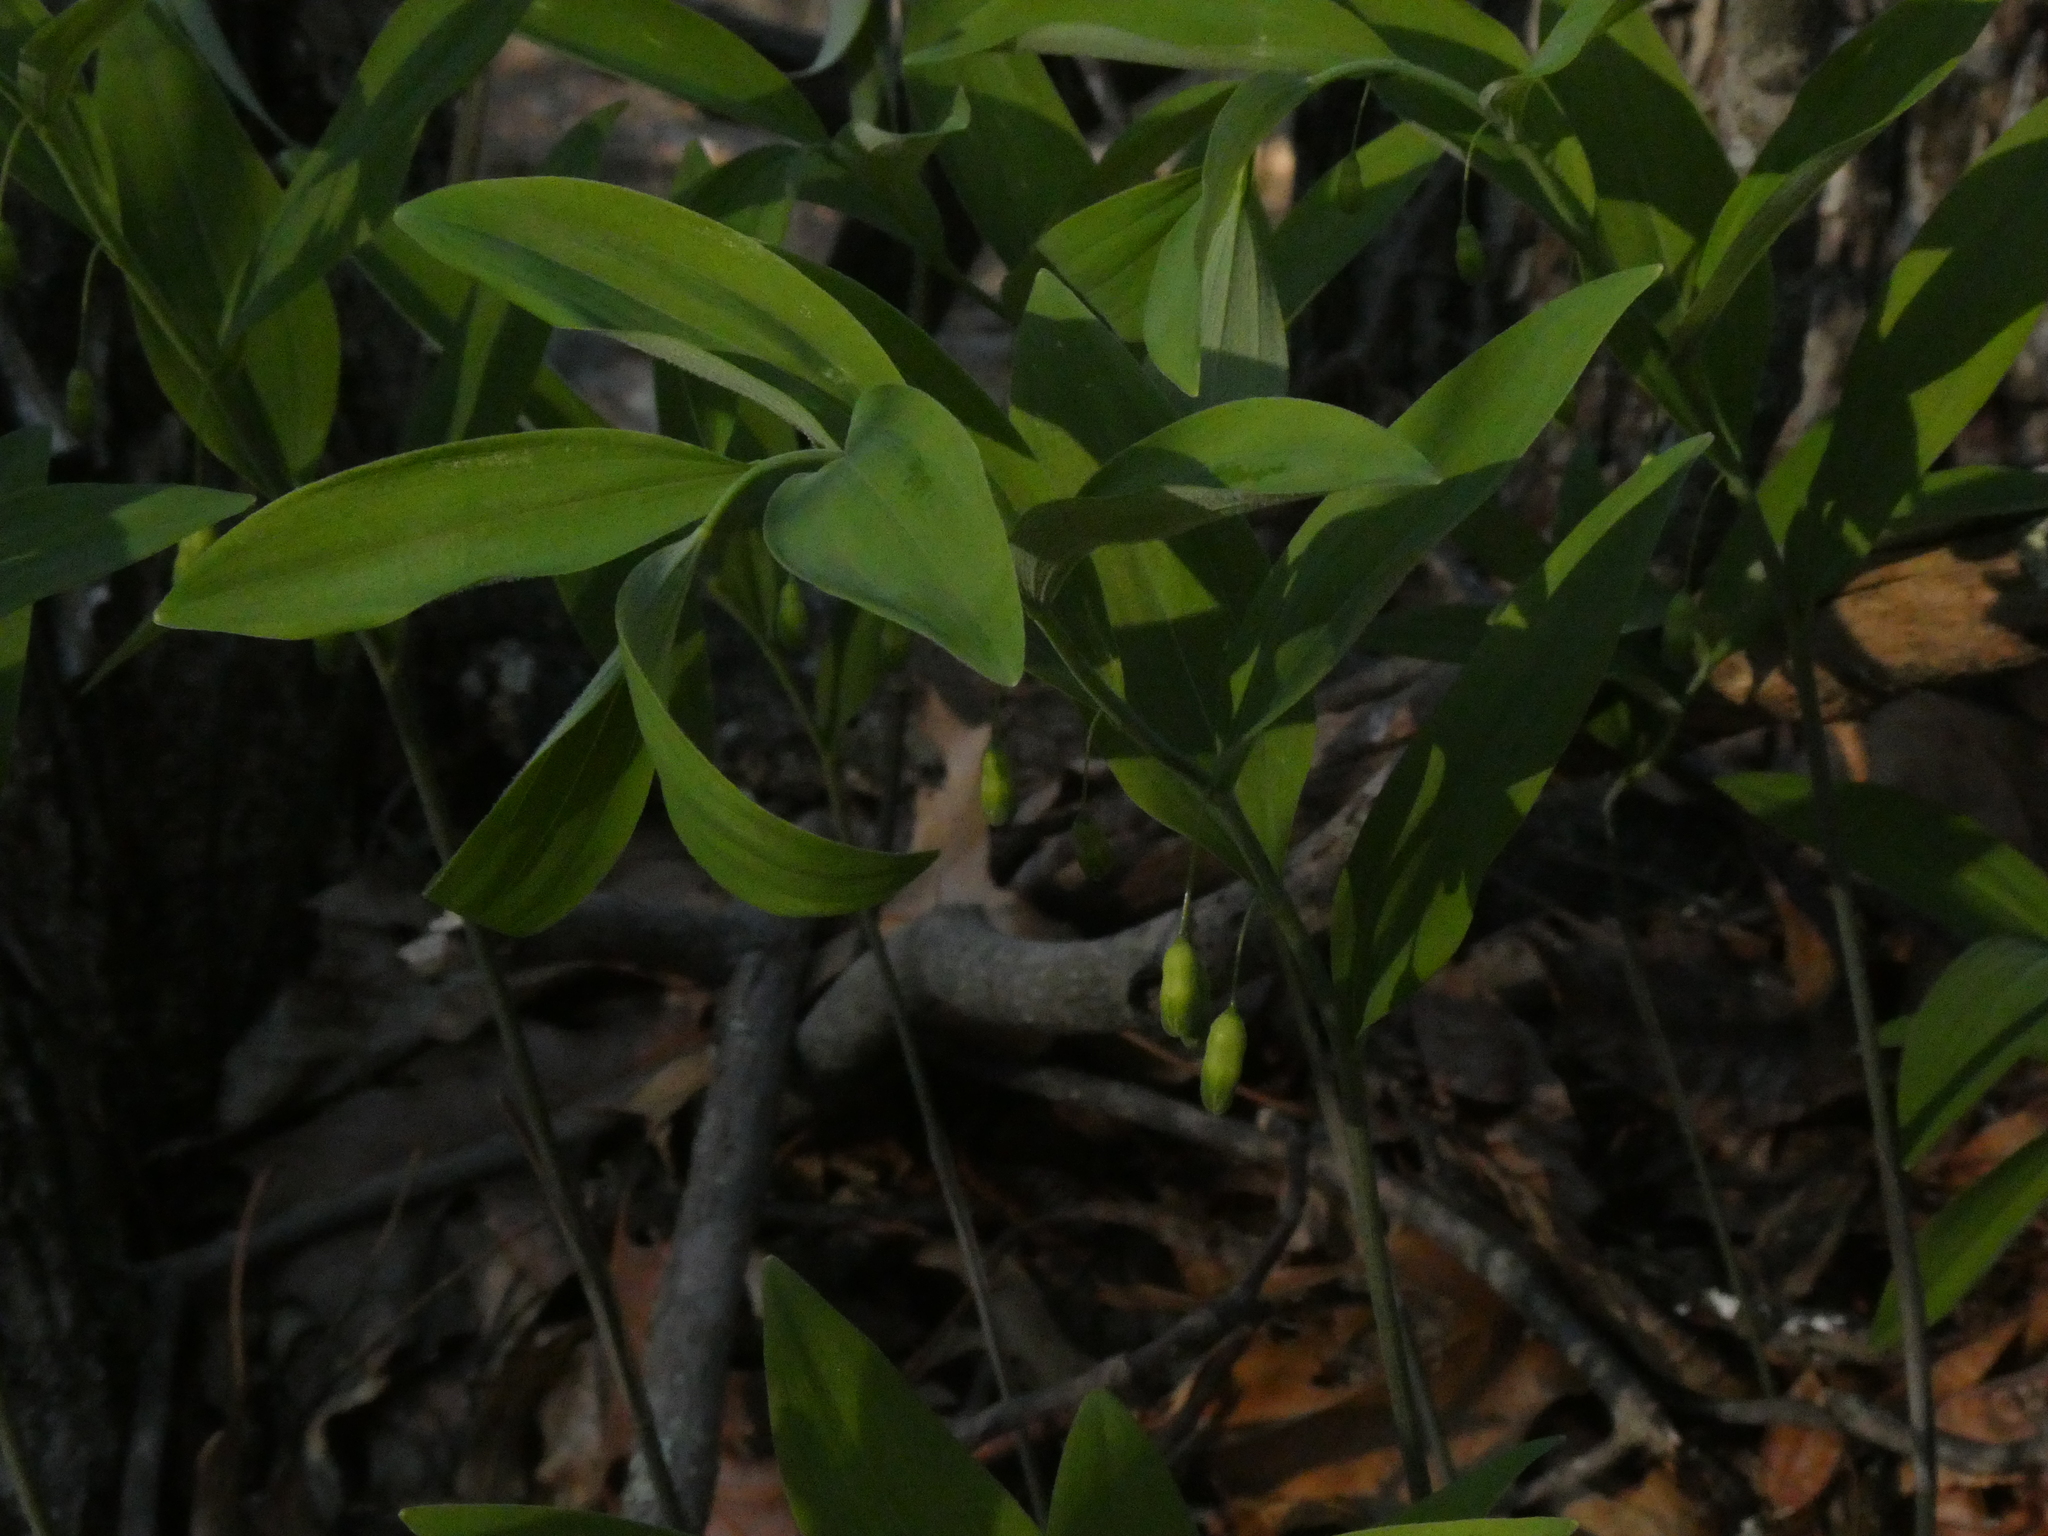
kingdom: Plantae
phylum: Tracheophyta
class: Liliopsida
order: Asparagales
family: Asparagaceae
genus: Polygonatum
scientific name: Polygonatum pubescens
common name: Downy solomon's seal
